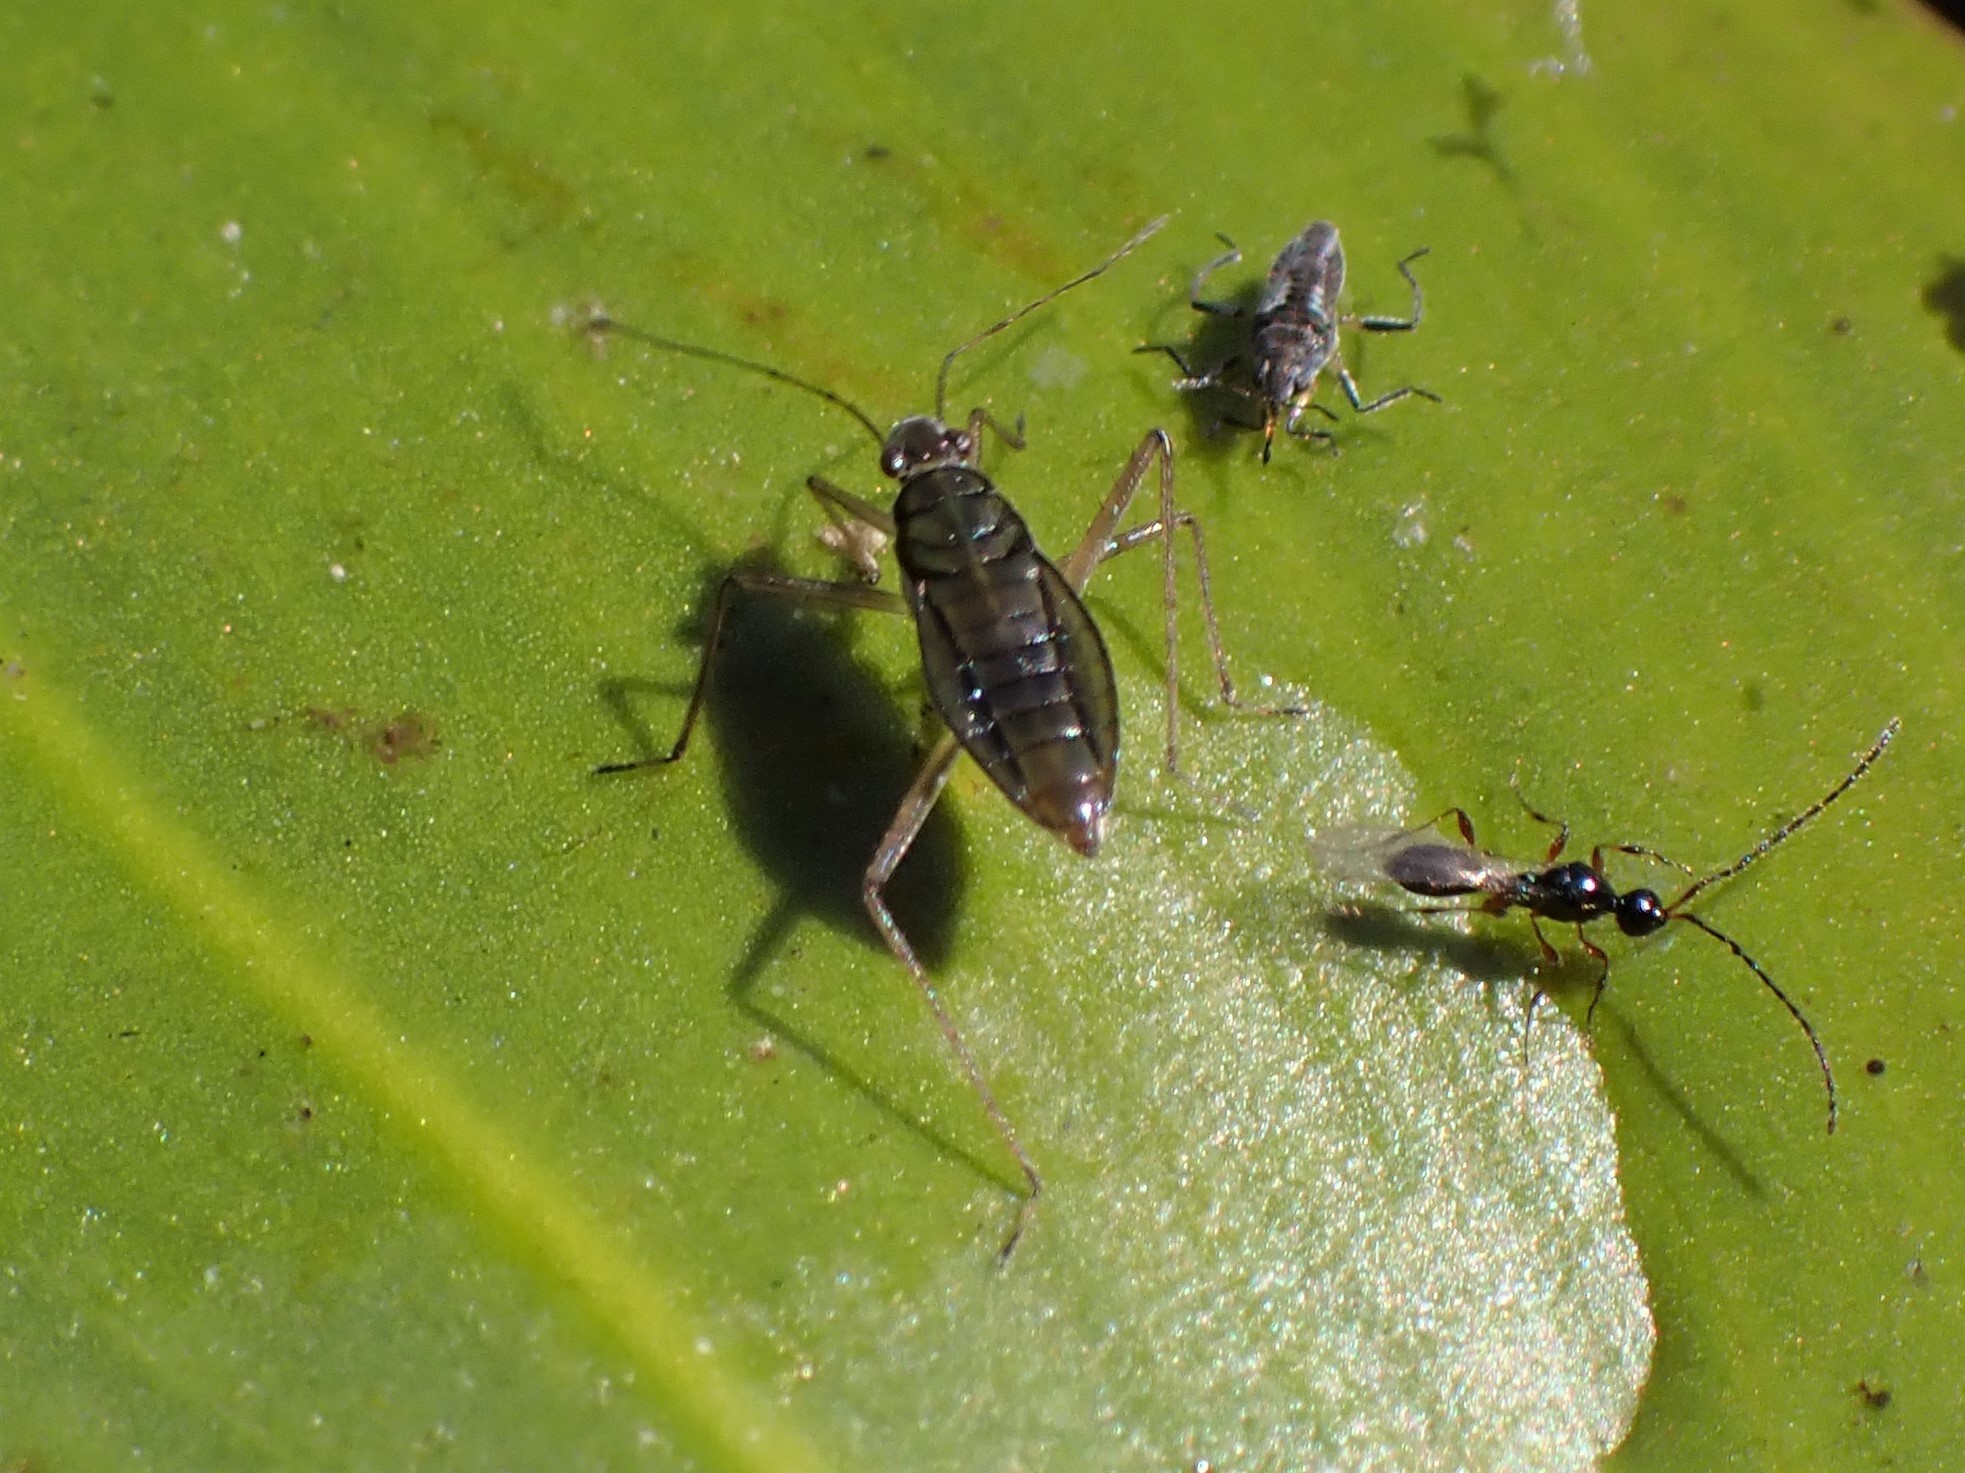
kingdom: Animalia
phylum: Arthropoda
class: Insecta
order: Hemiptera
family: Mesoveliidae
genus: Mesovelia
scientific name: Mesovelia mulsanti
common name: Water treaders
